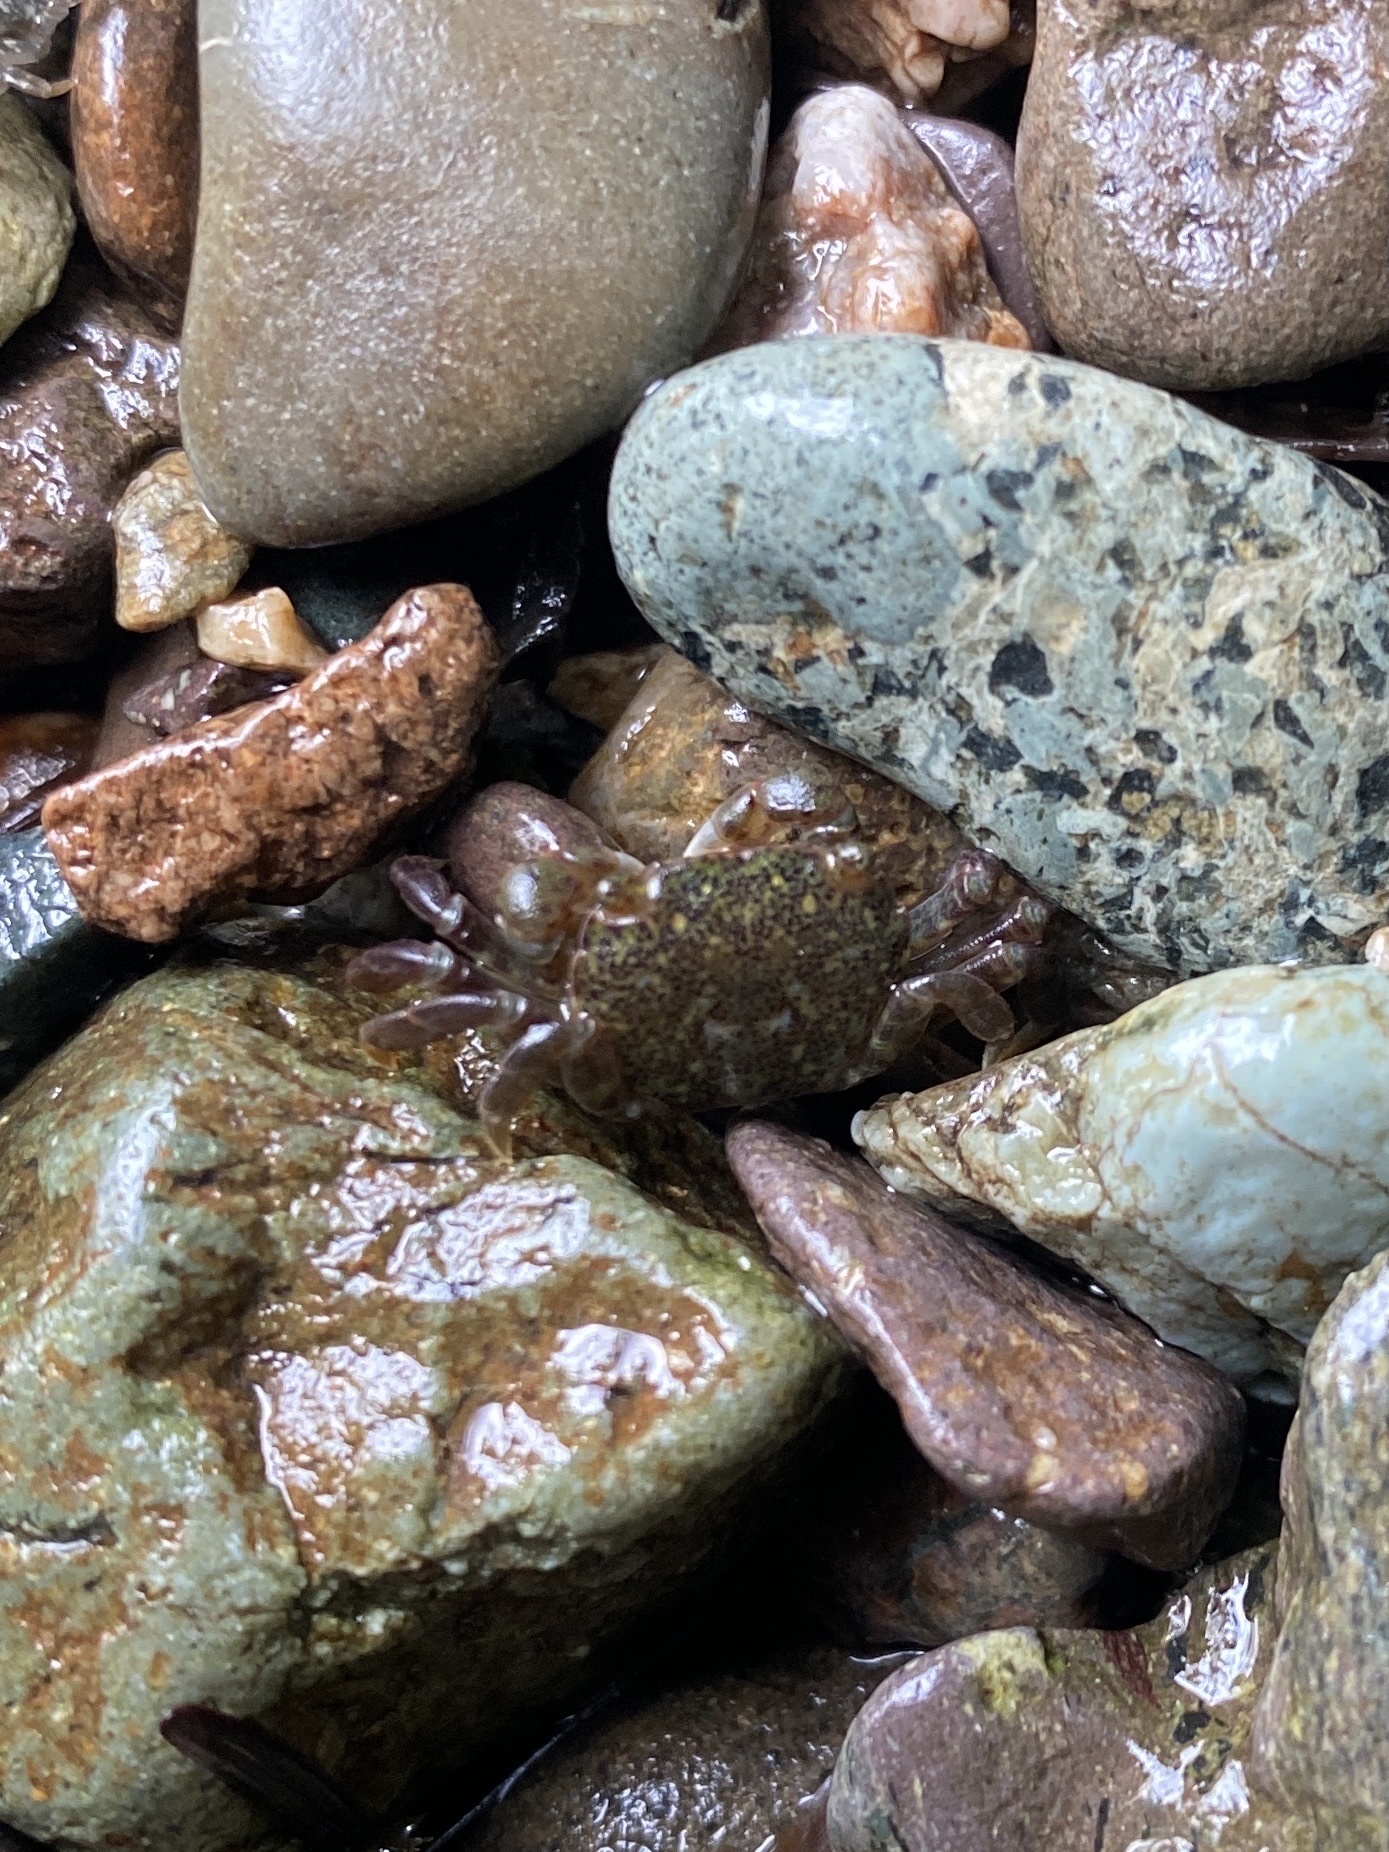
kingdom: Animalia
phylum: Arthropoda
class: Malacostraca
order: Decapoda
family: Varunidae
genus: Hemigrapsus
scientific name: Hemigrapsus nudus
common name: Purple shore crab
